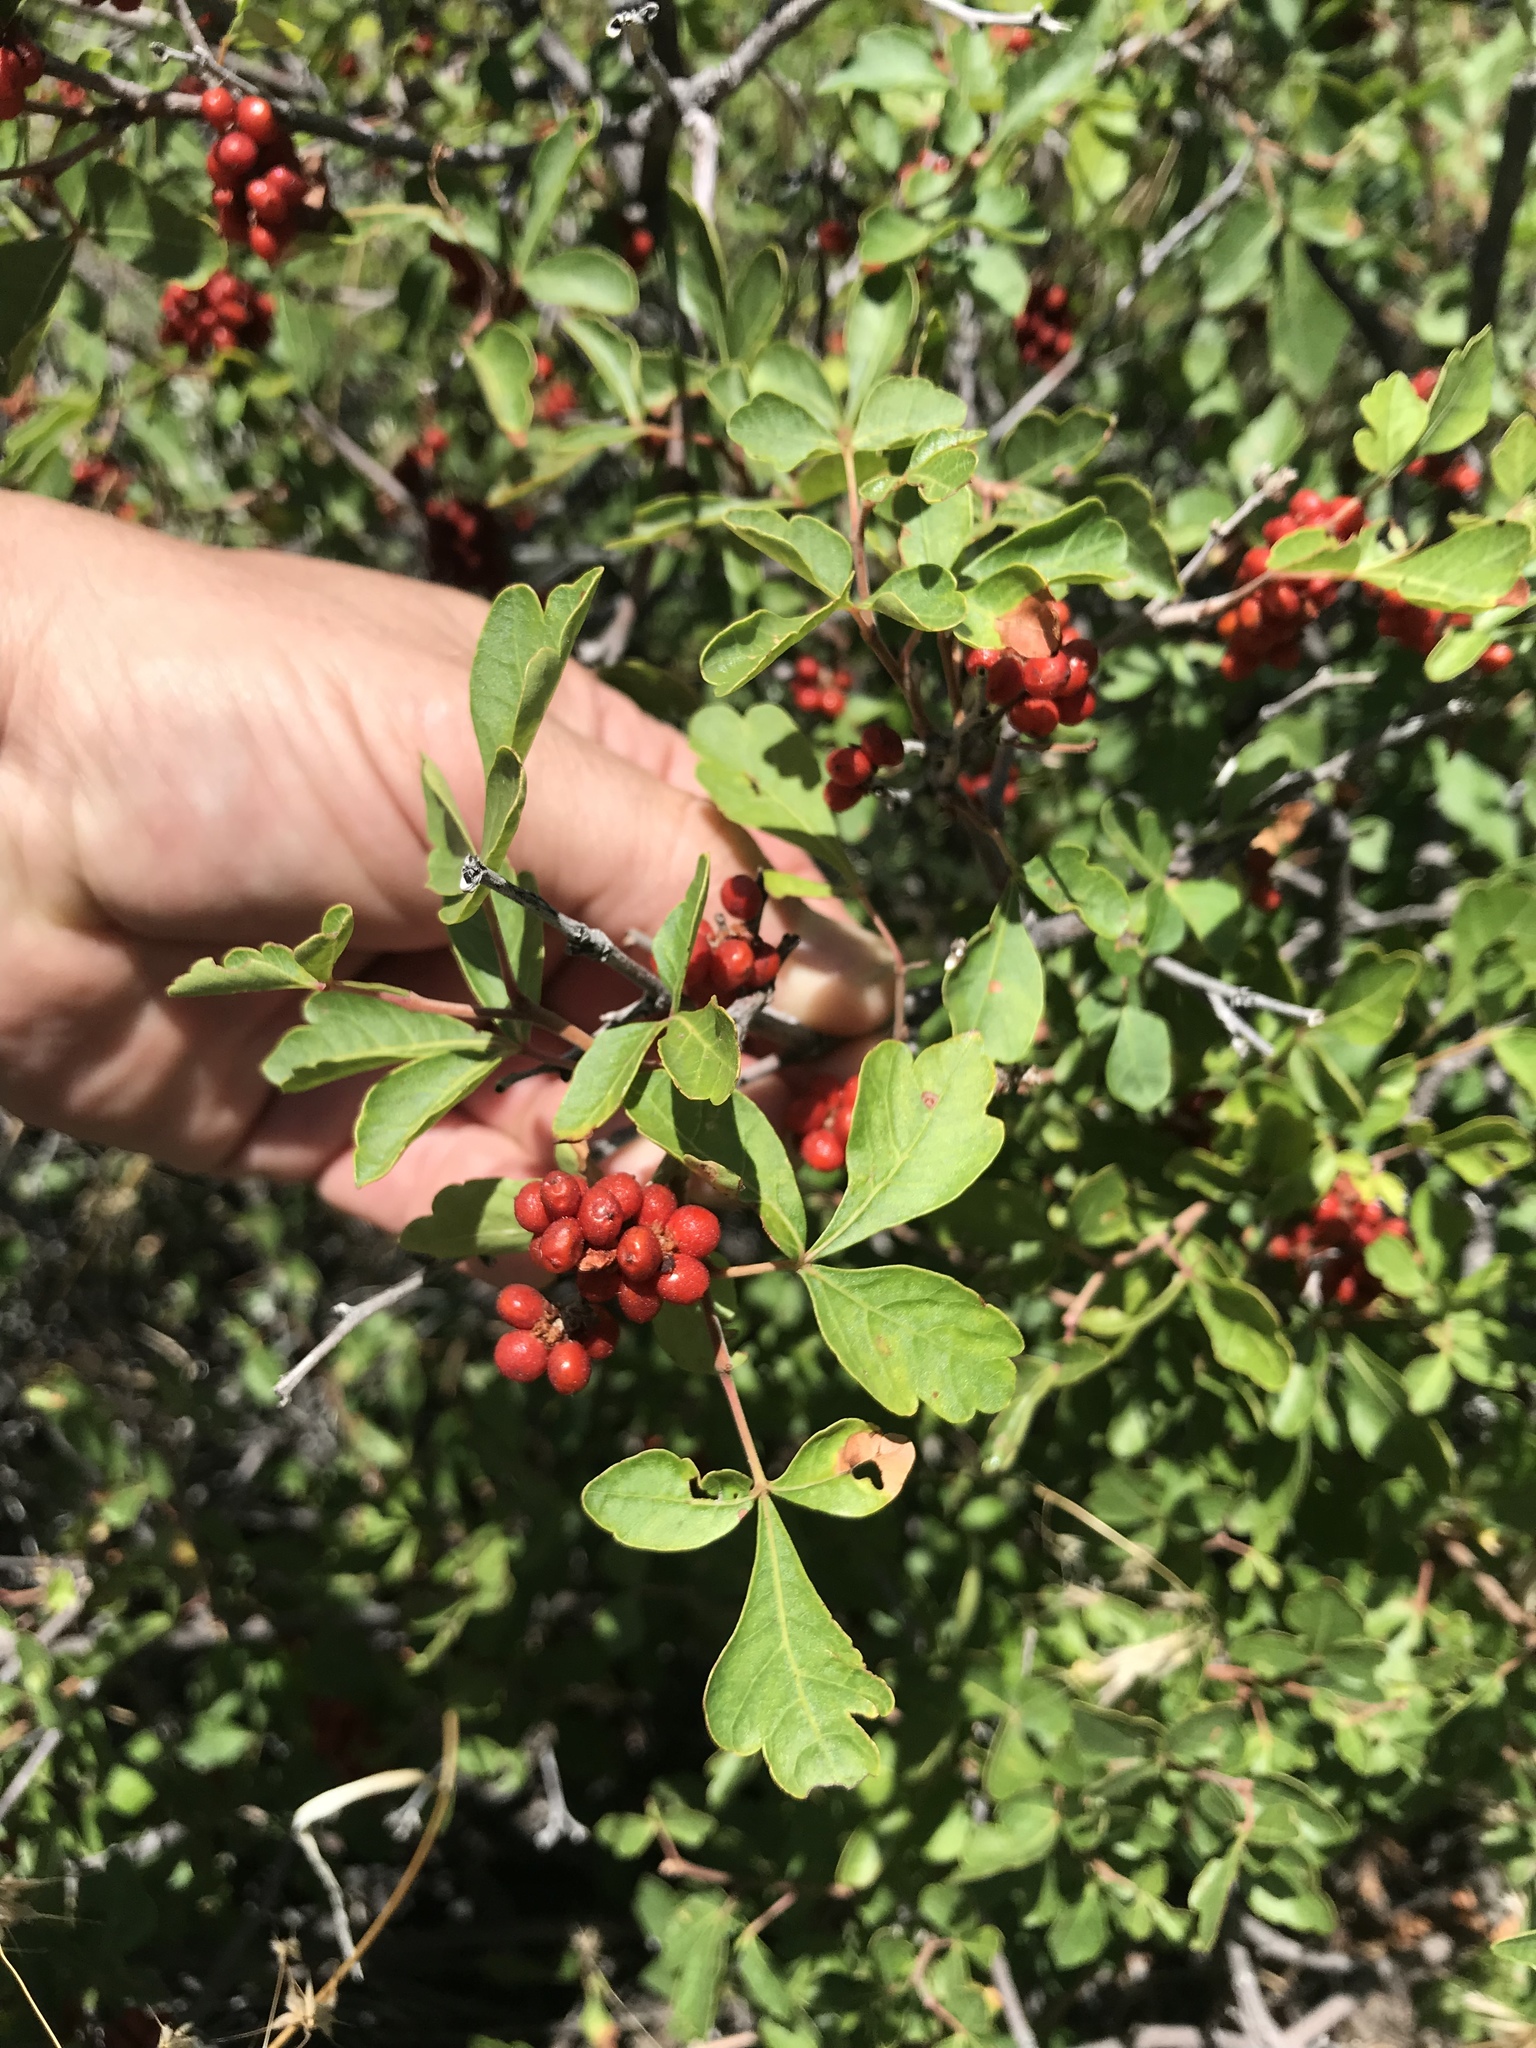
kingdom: Plantae
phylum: Tracheophyta
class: Magnoliopsida
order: Sapindales
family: Anacardiaceae
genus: Rhus
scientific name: Rhus aromatica
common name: Aromatic sumac
